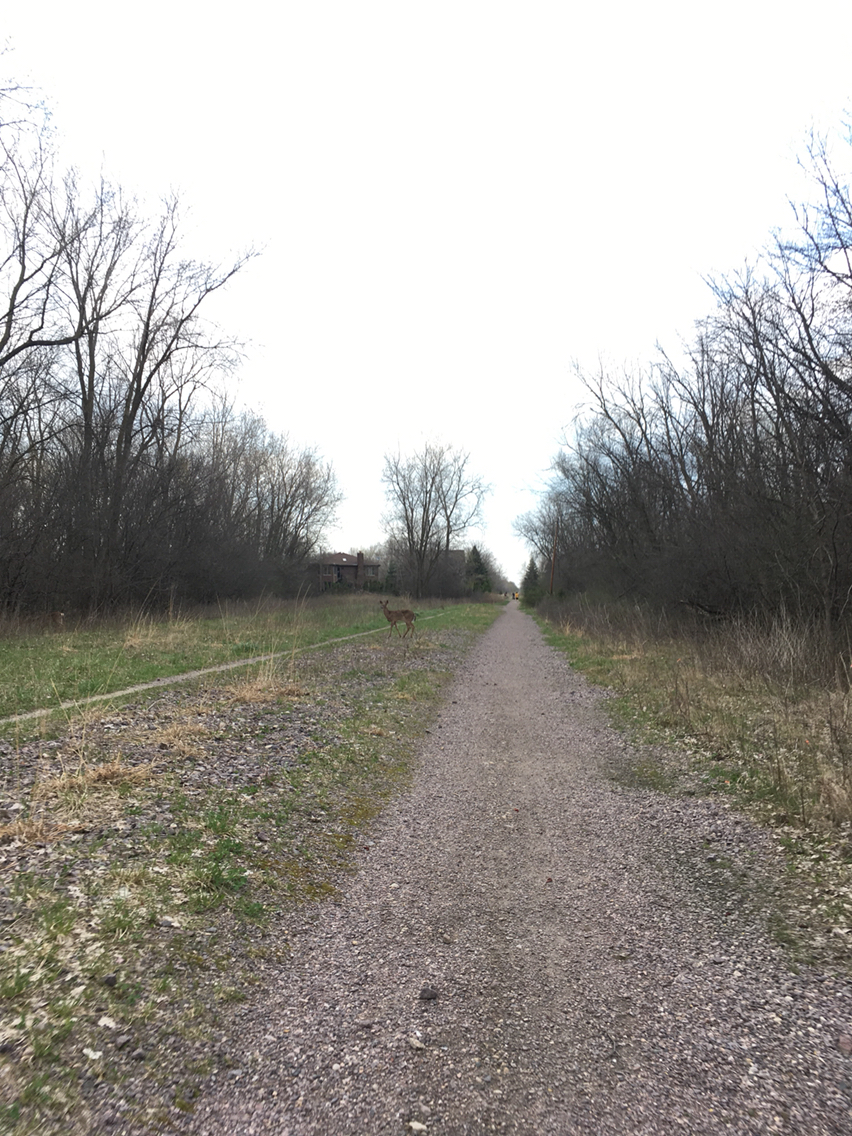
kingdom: Animalia
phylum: Chordata
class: Mammalia
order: Artiodactyla
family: Cervidae
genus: Odocoileus
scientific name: Odocoileus virginianus
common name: White-tailed deer
